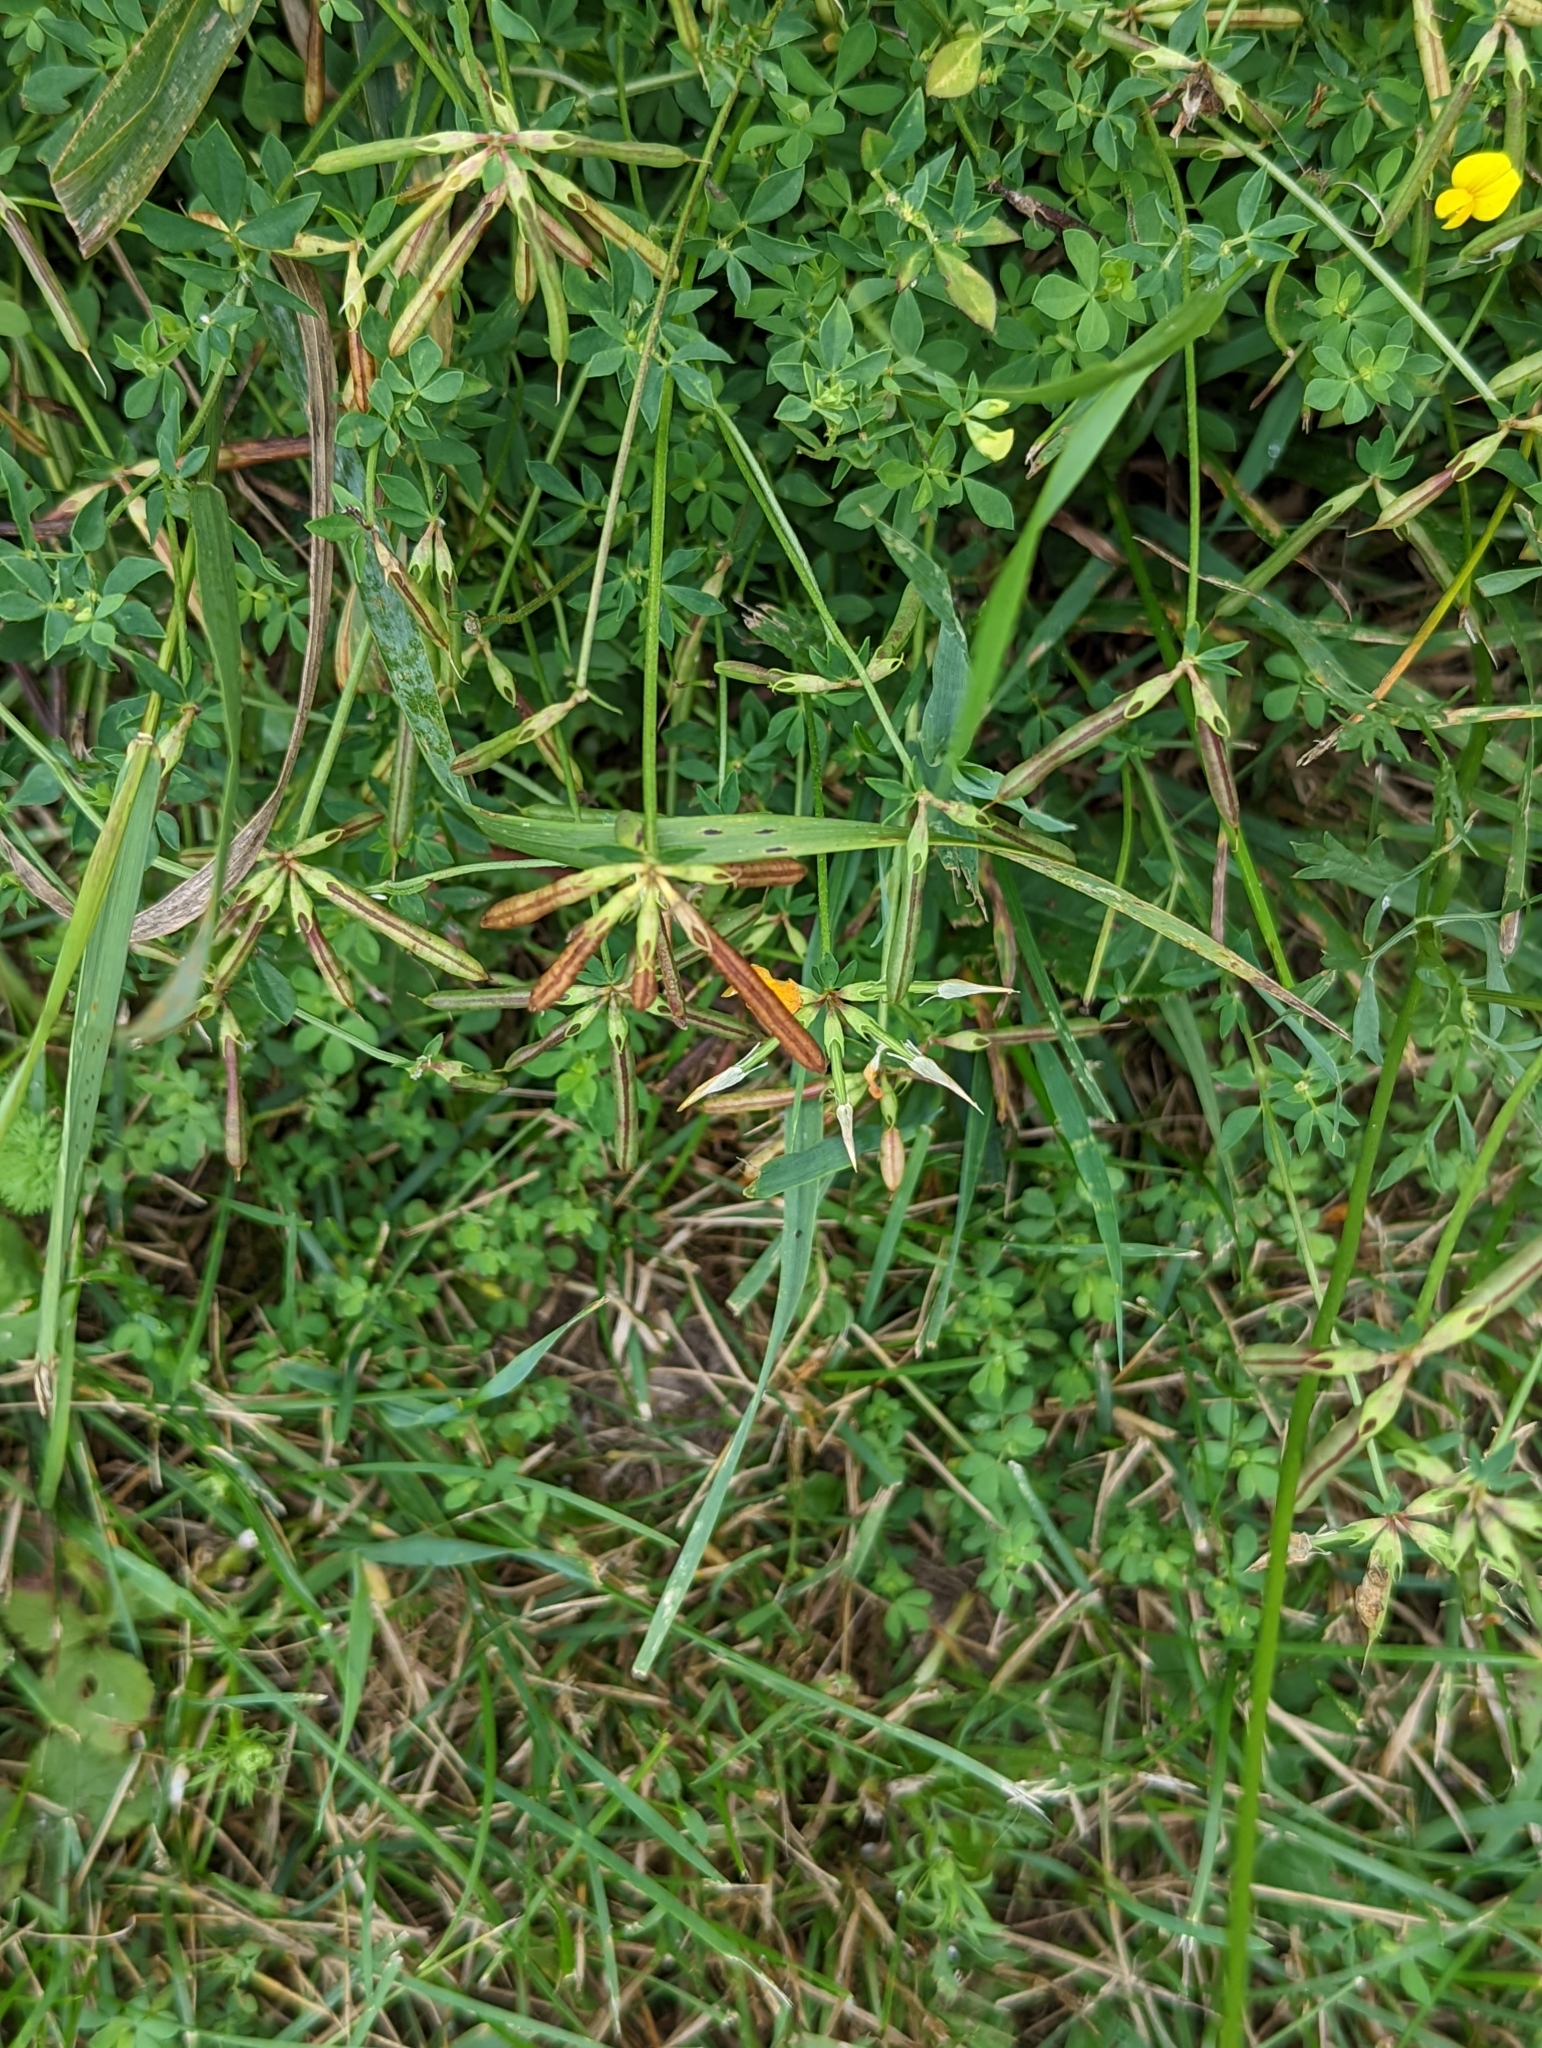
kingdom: Plantae
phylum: Tracheophyta
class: Magnoliopsida
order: Fabales
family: Fabaceae
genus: Lotus
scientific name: Lotus corniculatus
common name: Common bird's-foot-trefoil
